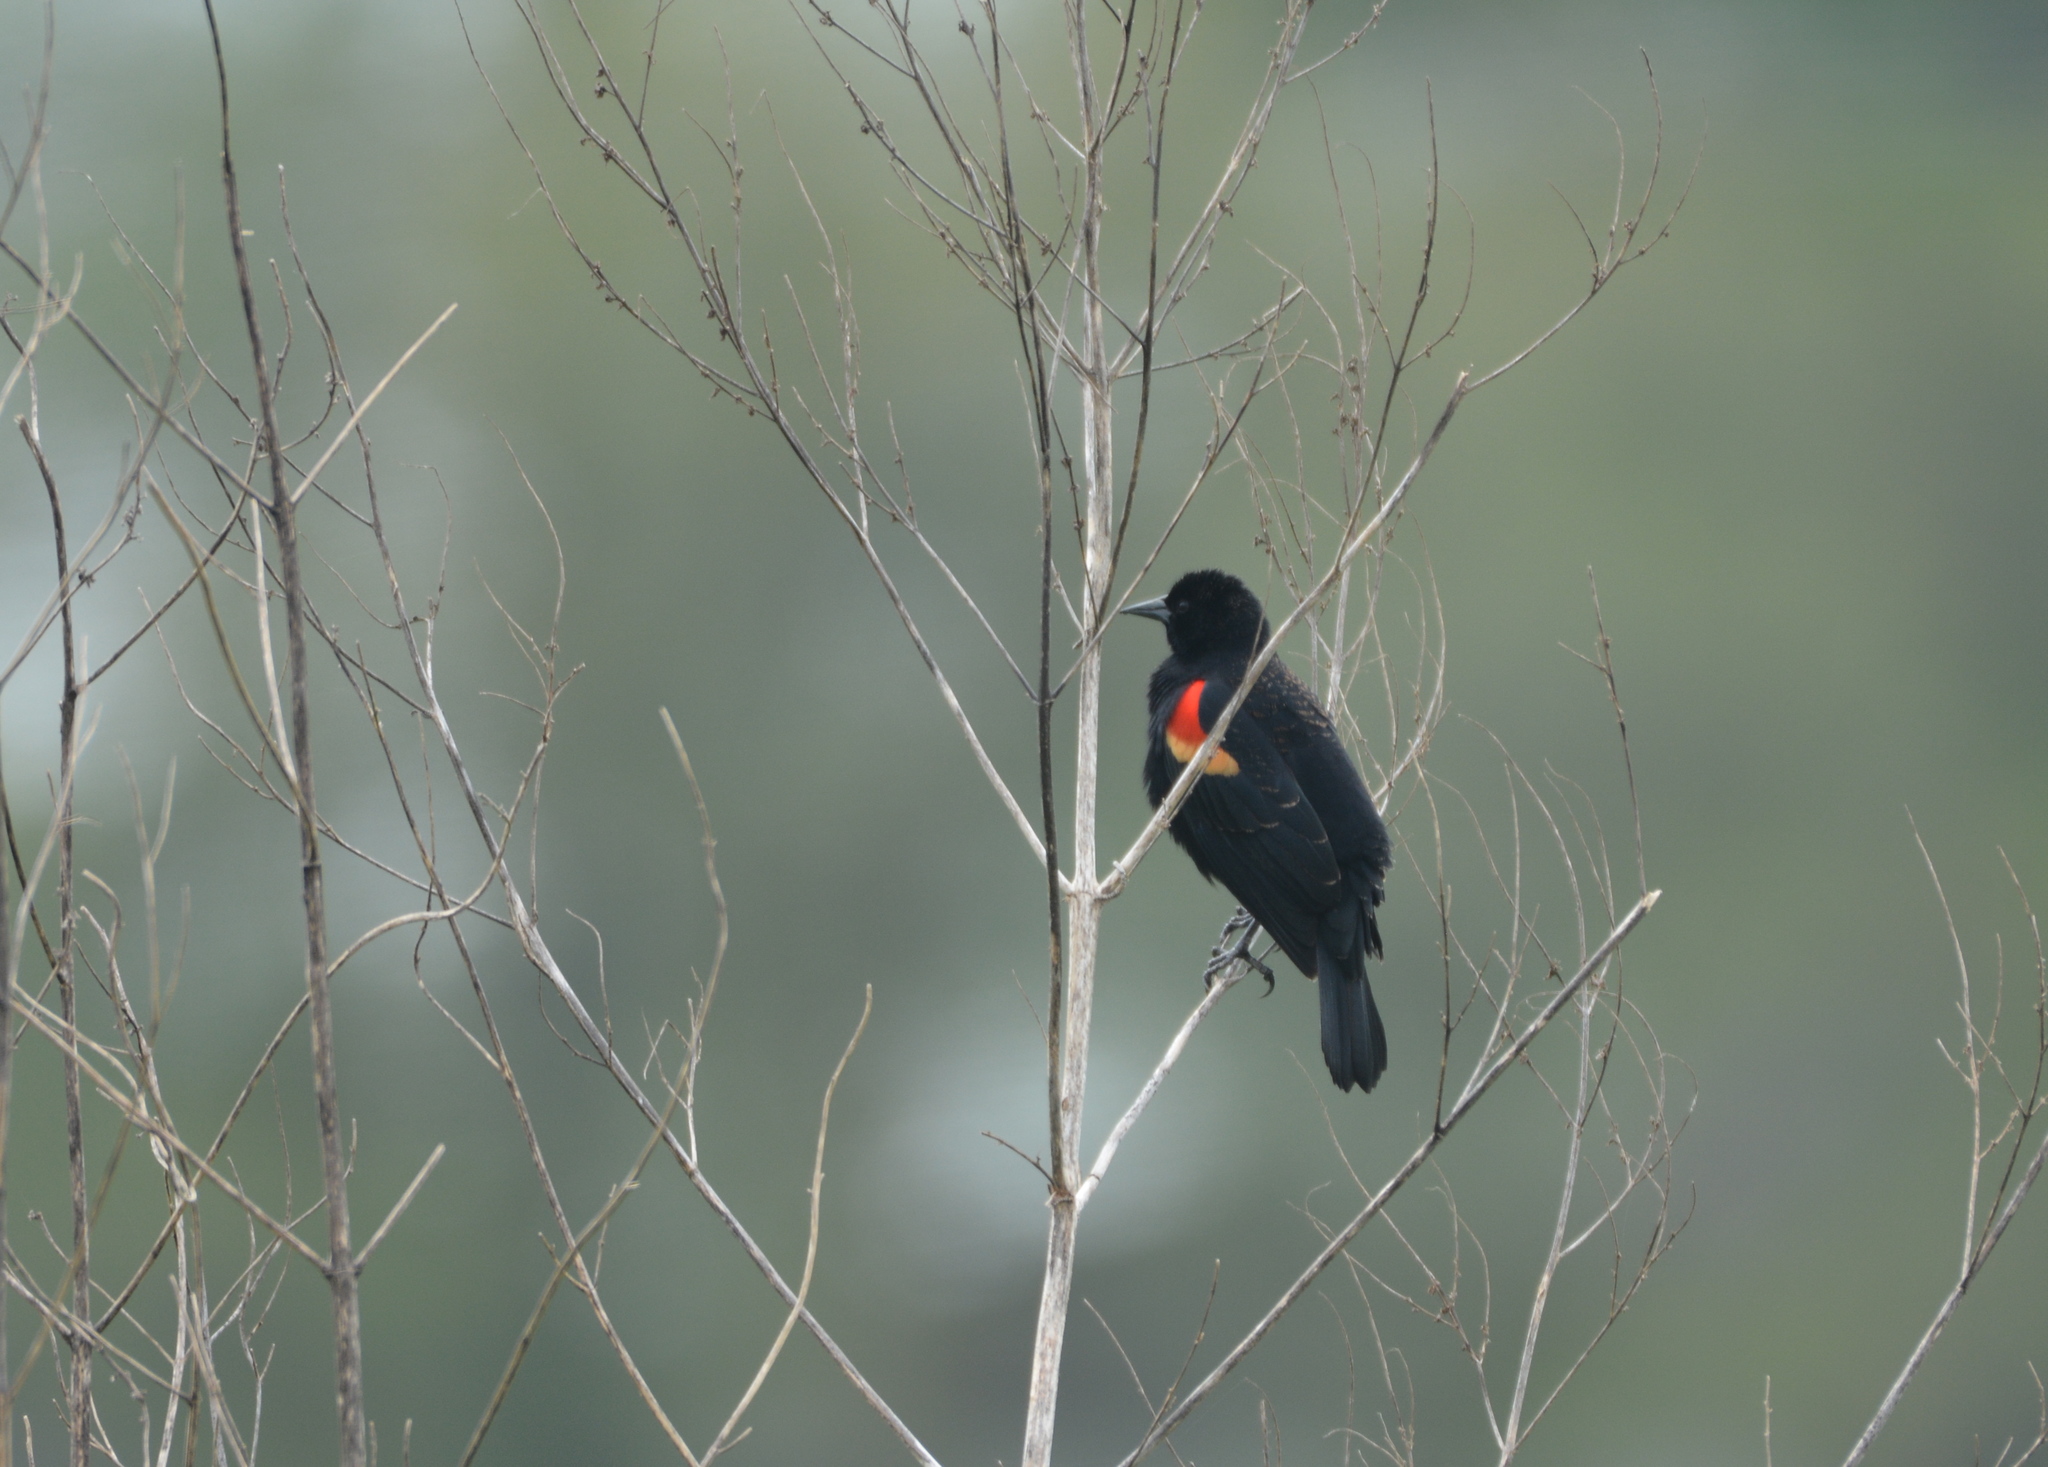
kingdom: Animalia
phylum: Chordata
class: Aves
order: Passeriformes
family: Icteridae
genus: Agelaius
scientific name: Agelaius phoeniceus
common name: Red-winged blackbird
